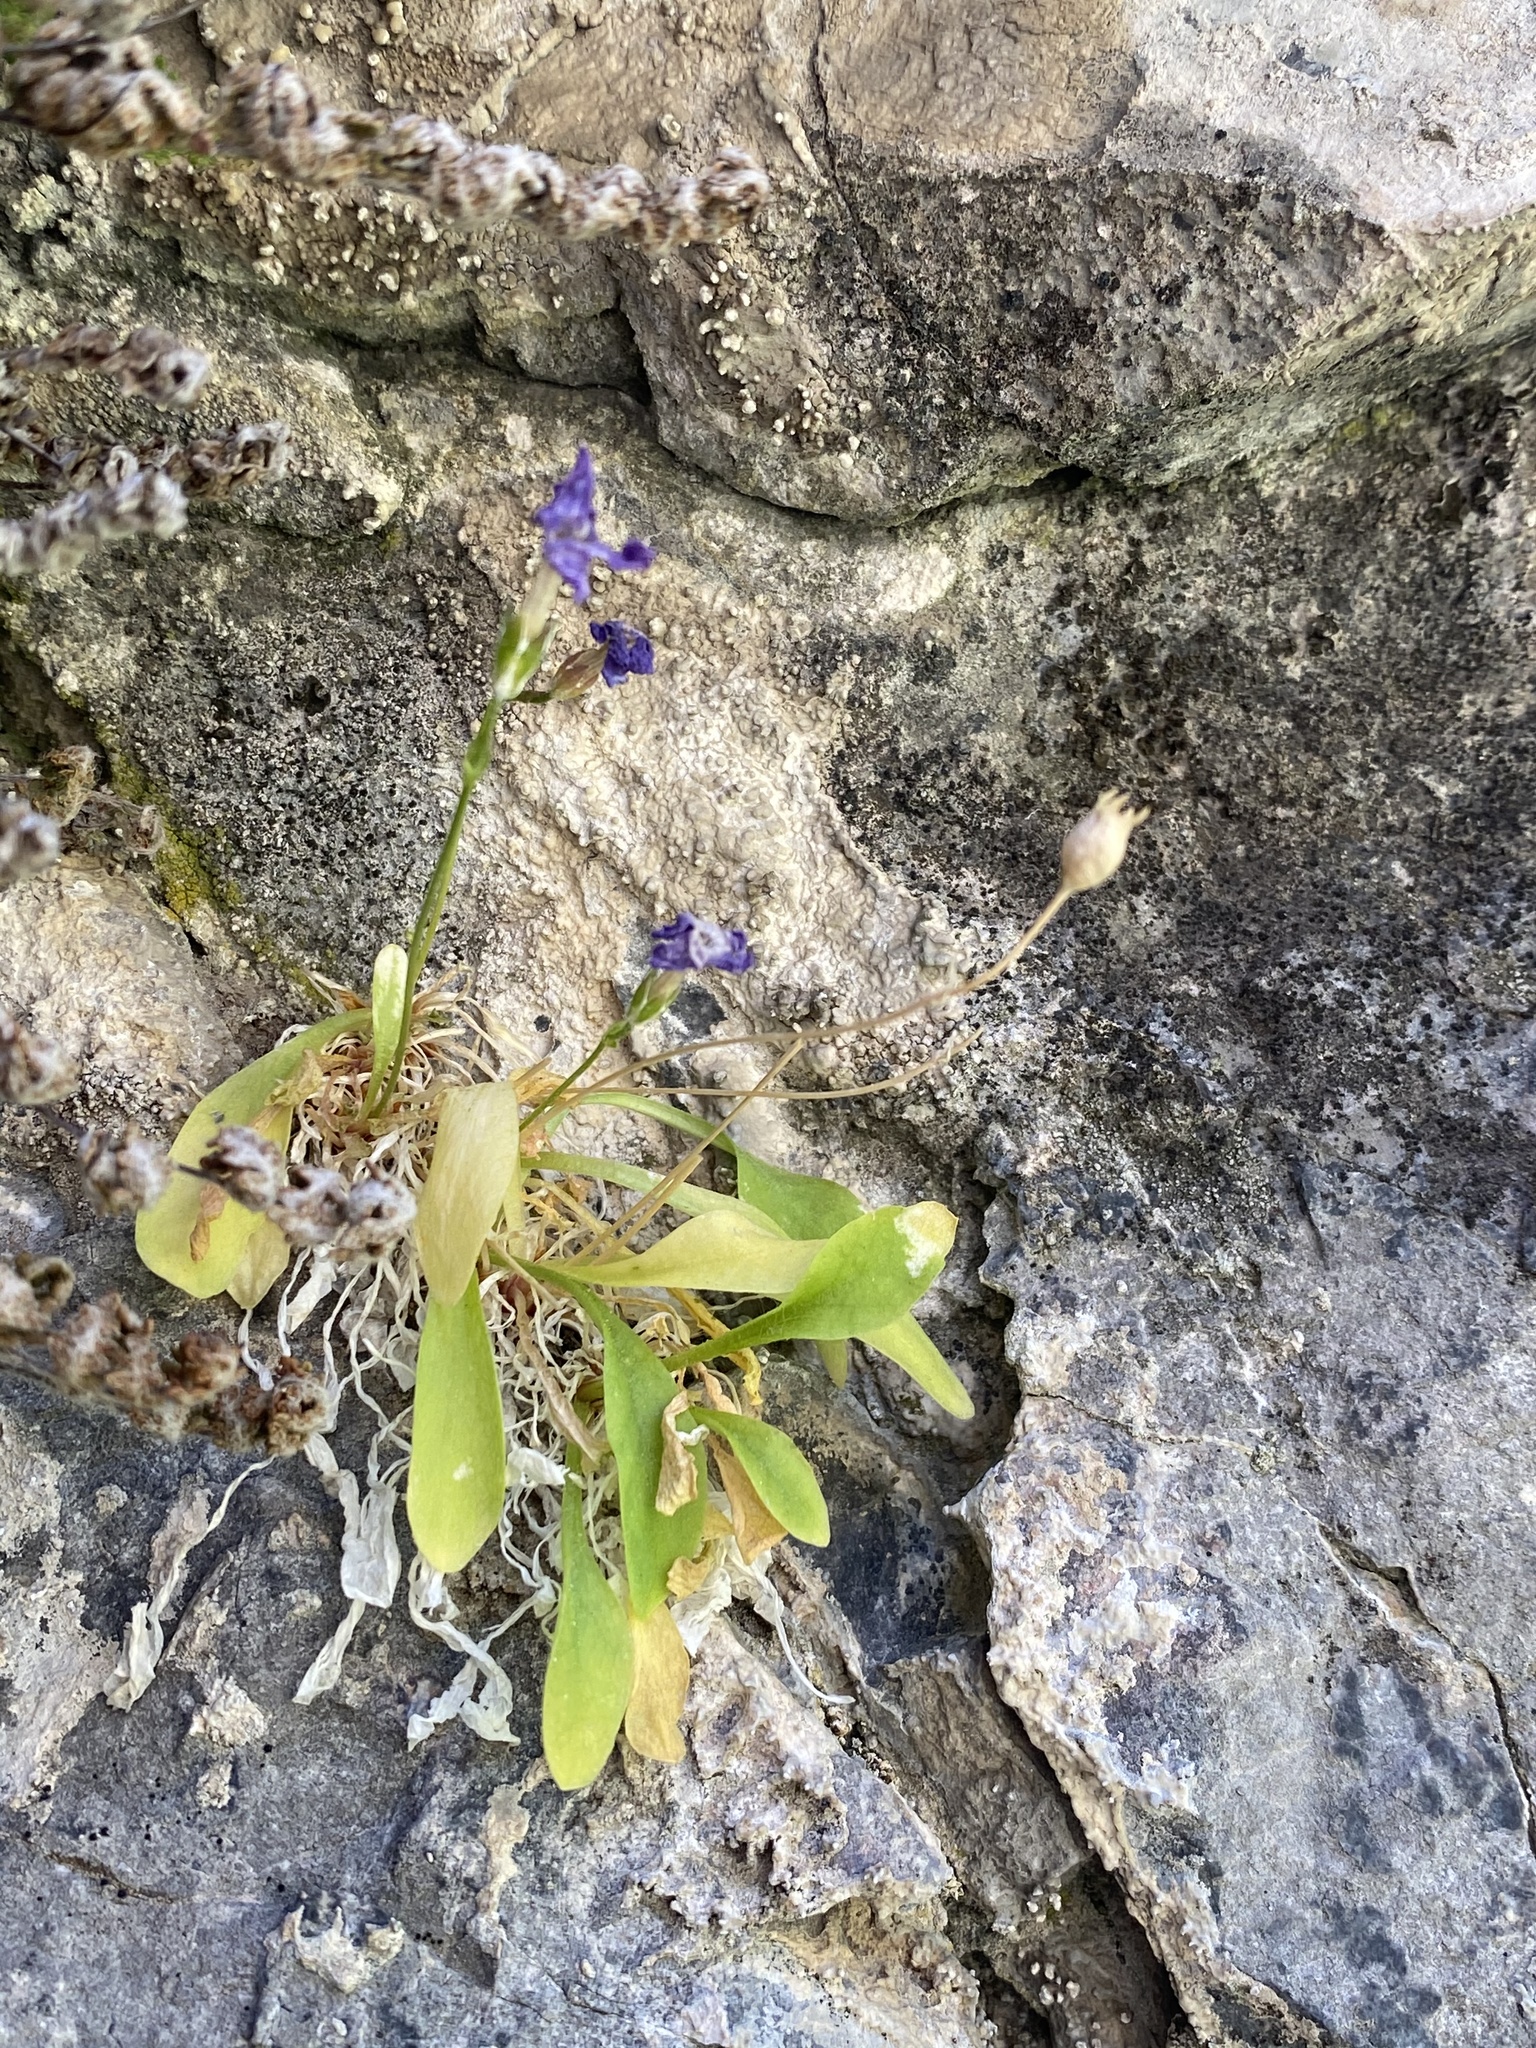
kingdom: Plantae
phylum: Tracheophyta
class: Magnoliopsida
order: Ericales
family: Primulaceae
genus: Primula
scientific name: Primula maguirei
